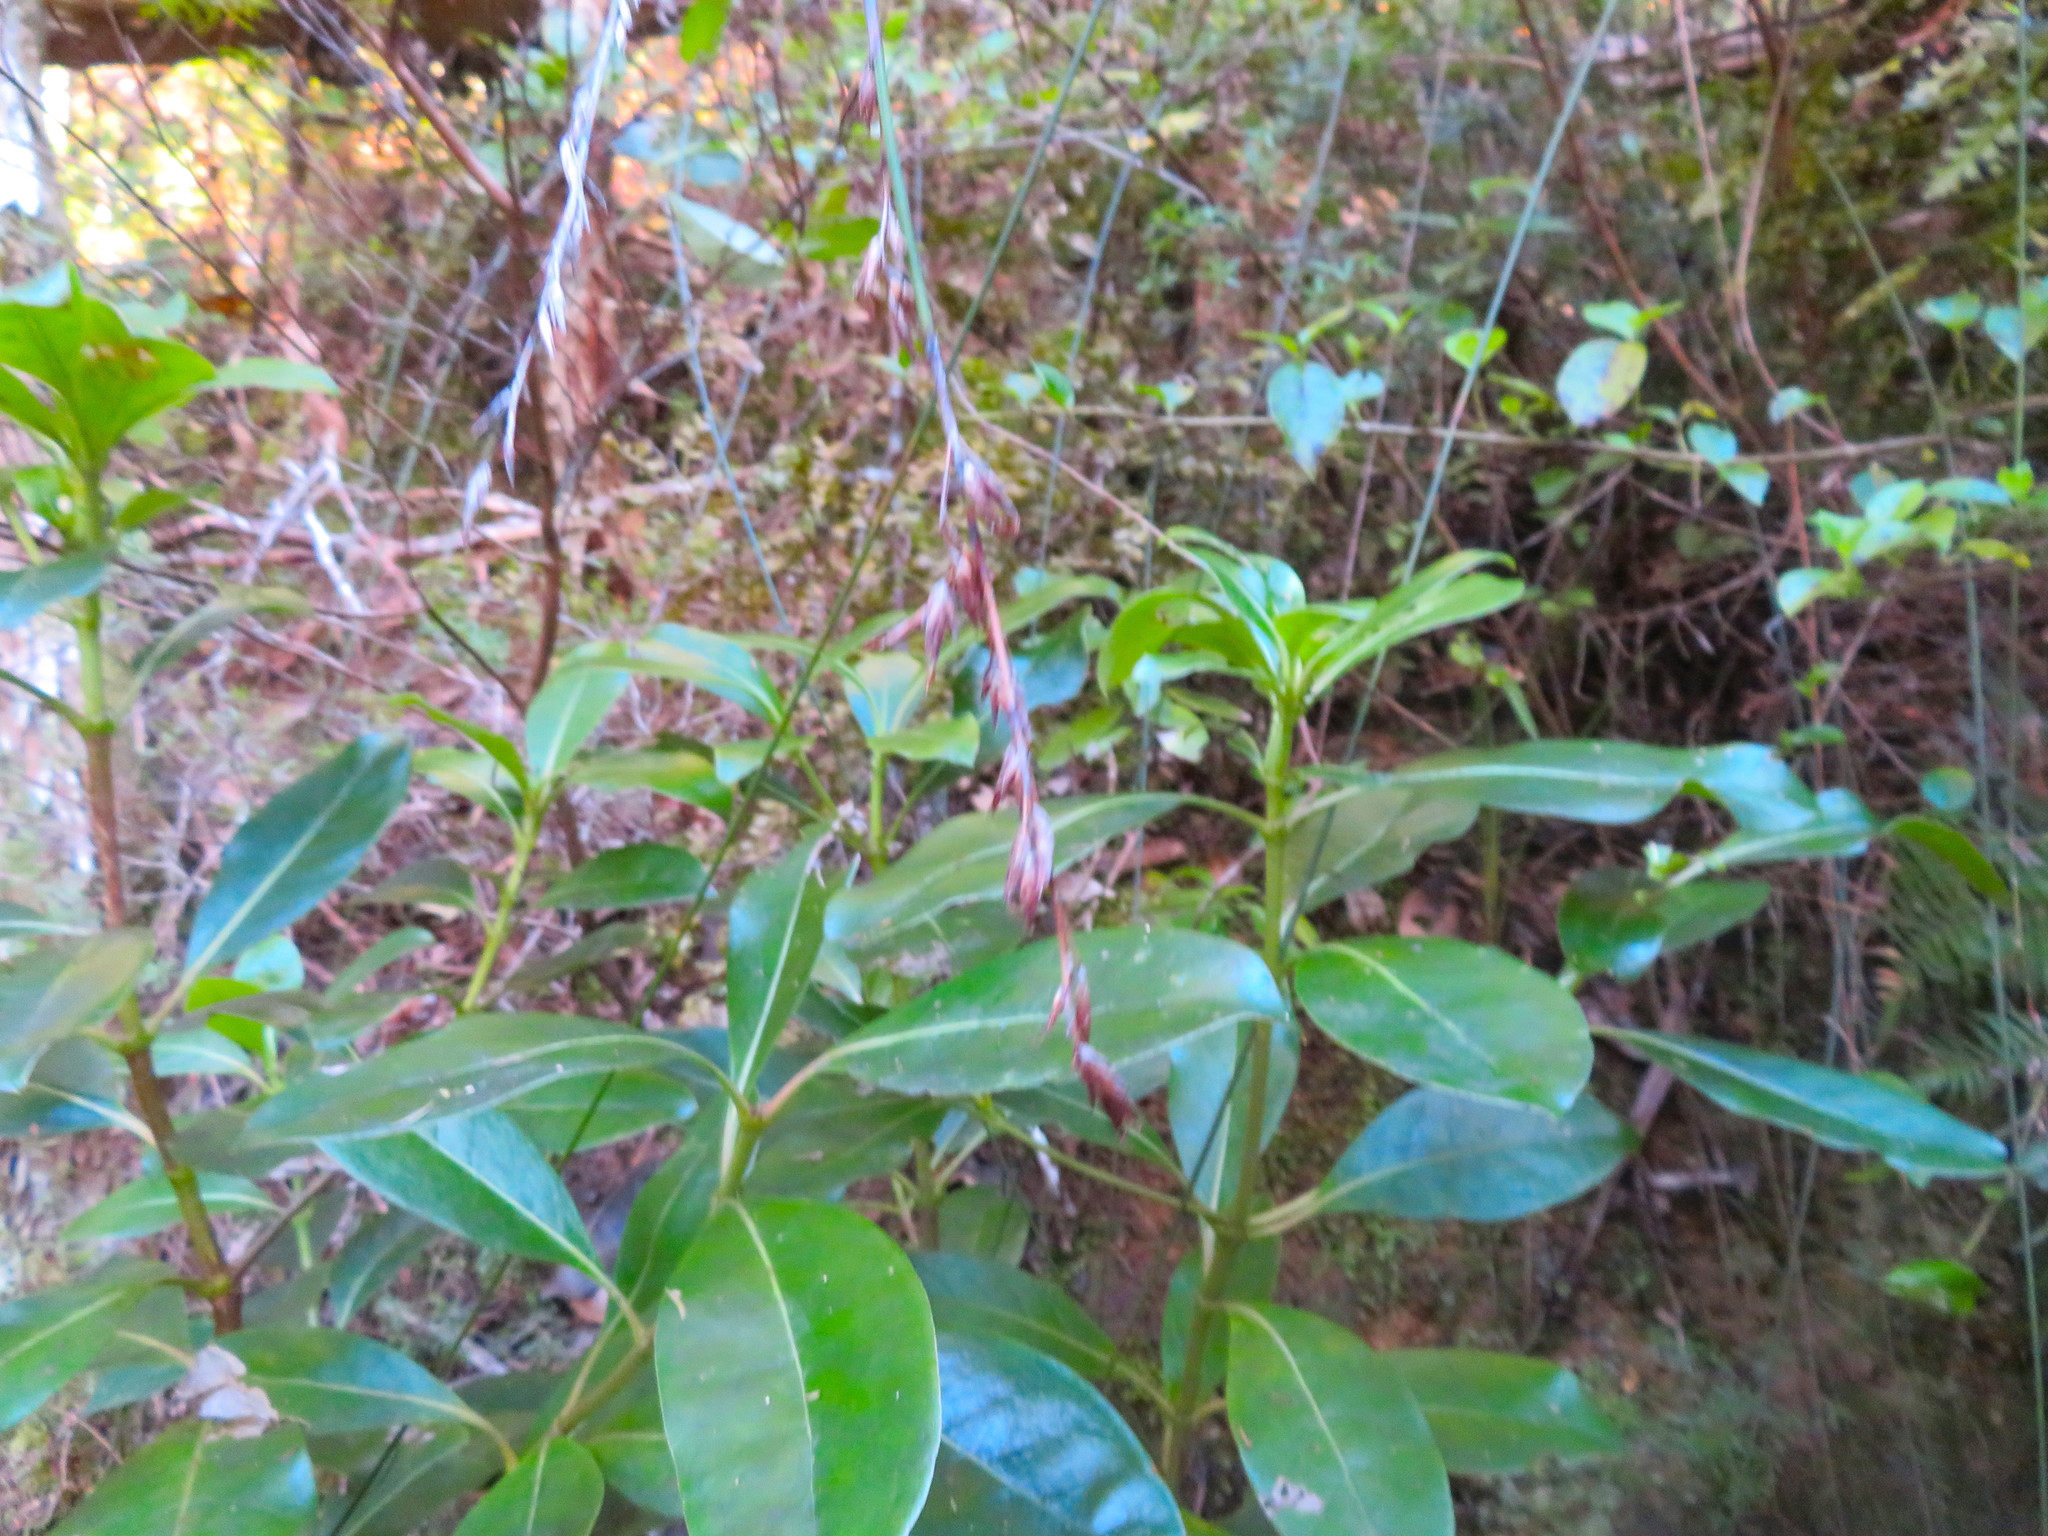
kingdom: Plantae
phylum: Tracheophyta
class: Liliopsida
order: Poales
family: Cyperaceae
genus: Schoenus
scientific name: Schoenus tendo
